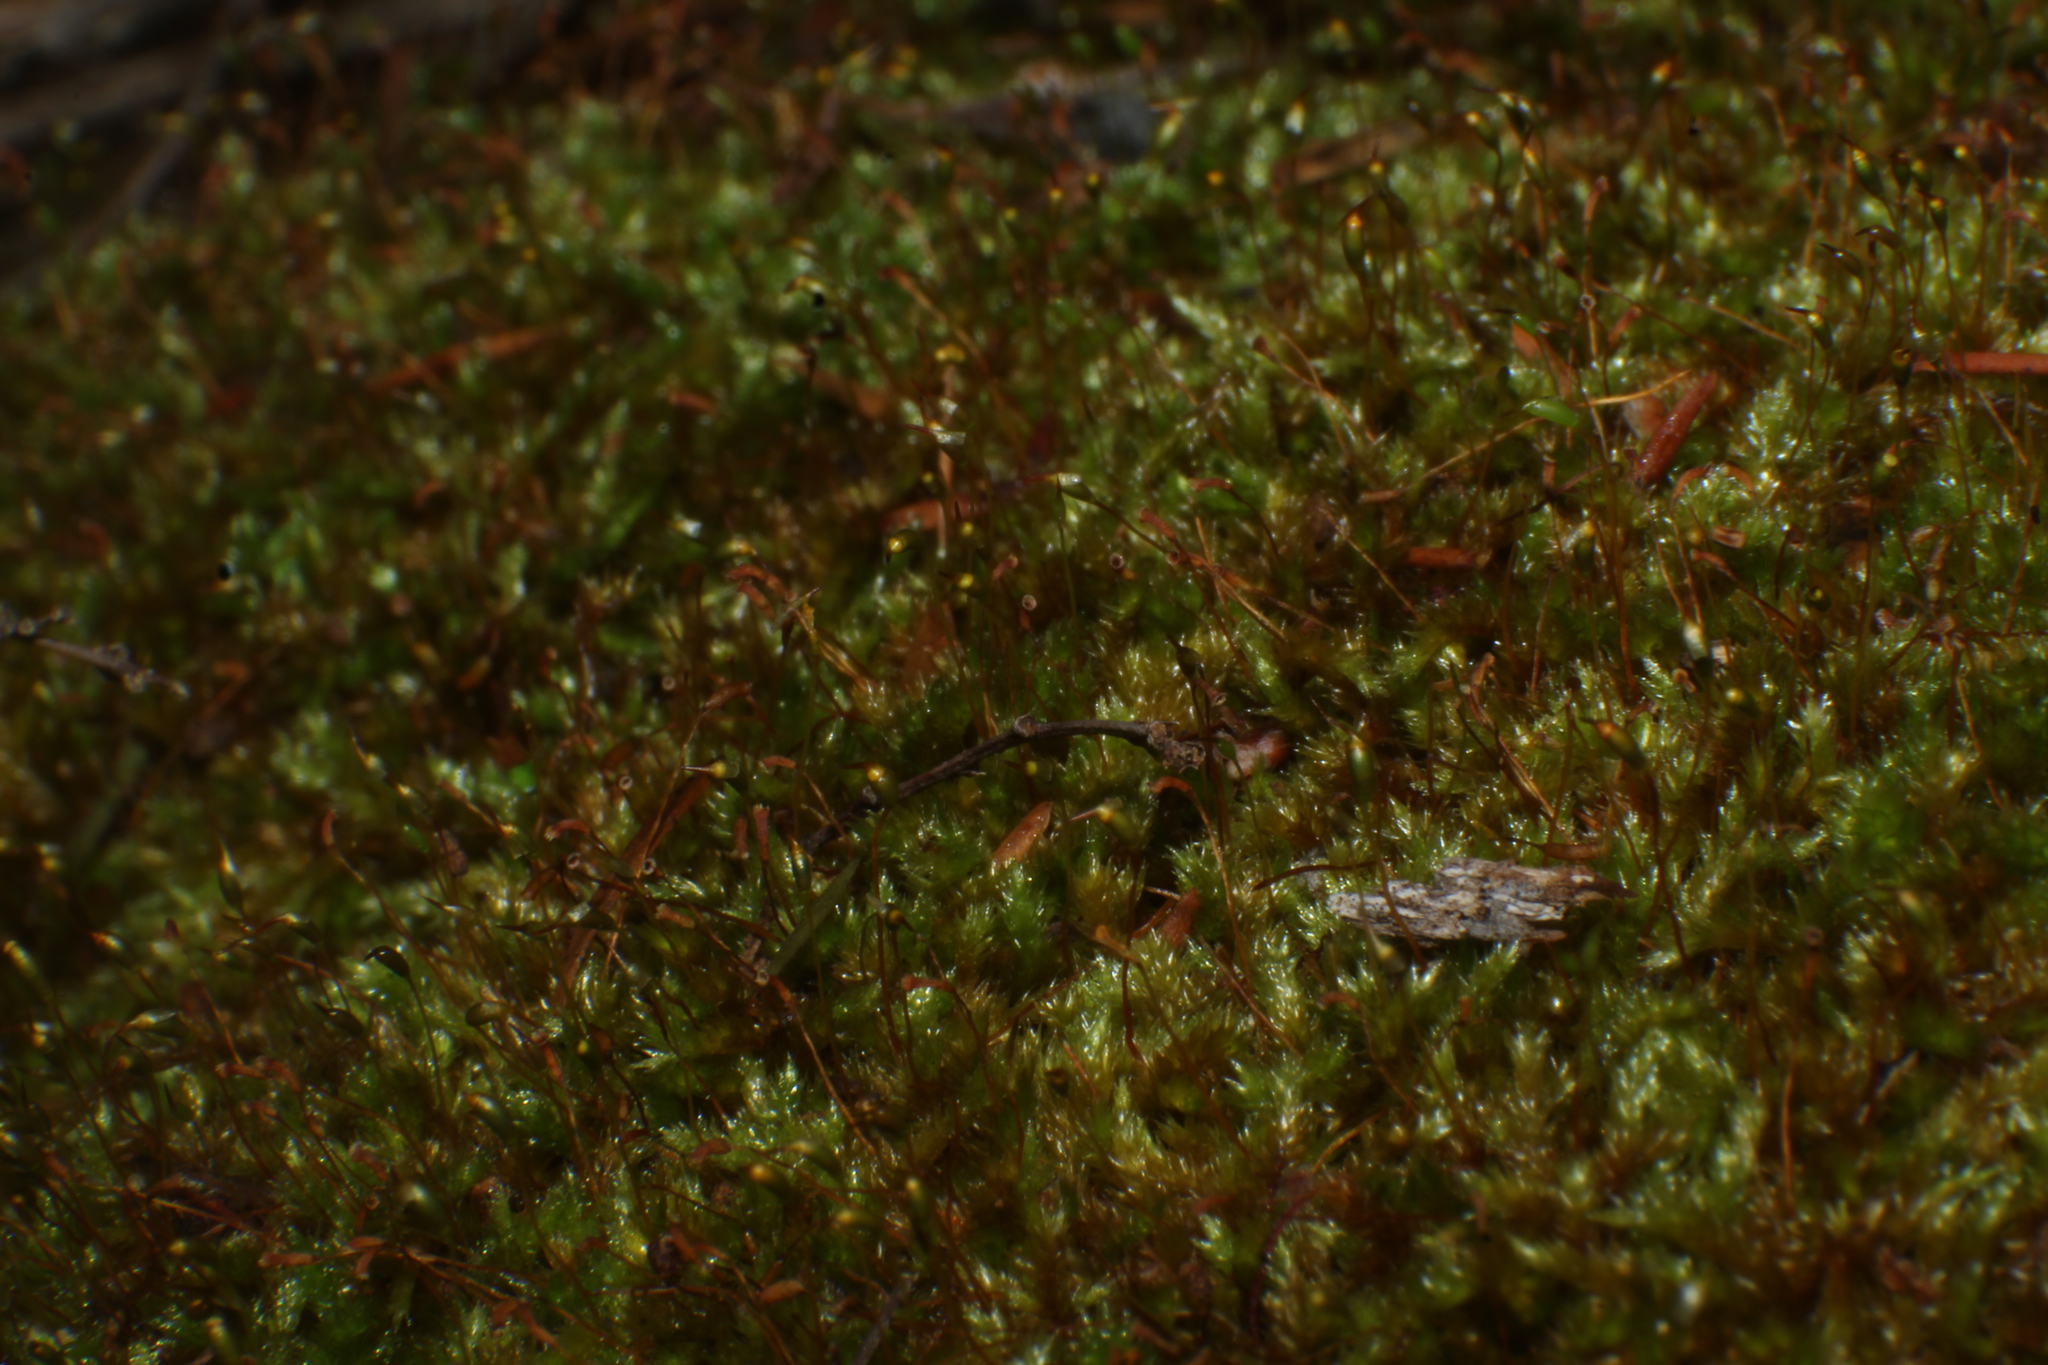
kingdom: Plantae
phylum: Bryophyta
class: Bryopsida
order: Hypnales
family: Sematophyllaceae
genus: Sematophyllum
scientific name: Sematophyllum homomallum
